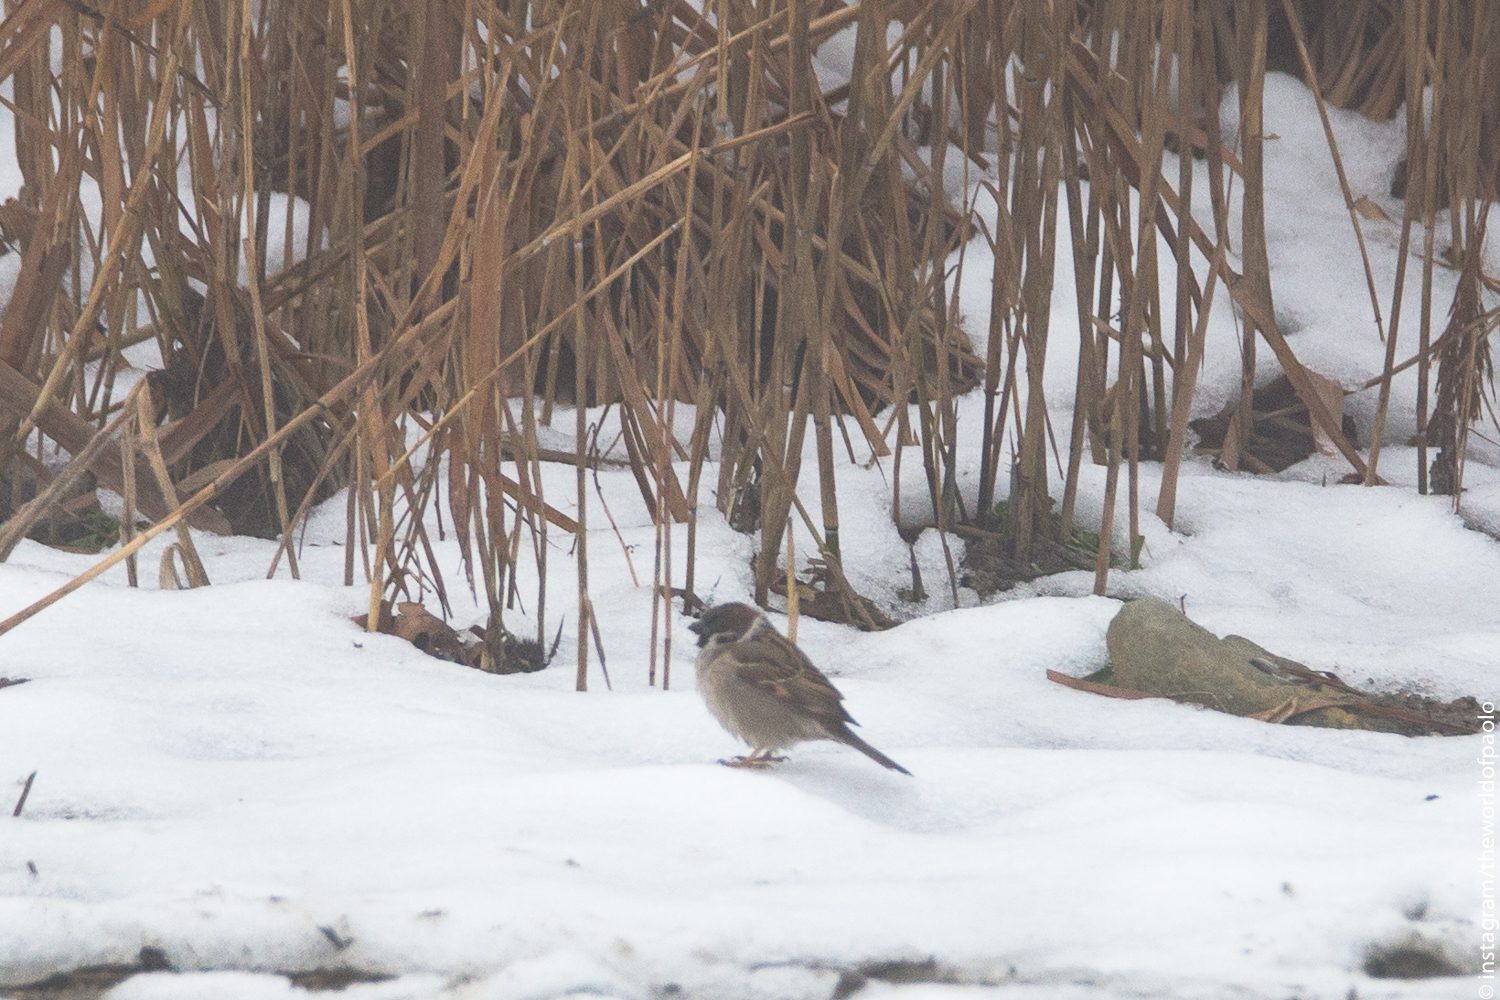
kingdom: Animalia
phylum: Chordata
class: Aves
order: Passeriformes
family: Emberizidae
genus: Emberiza
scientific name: Emberiza schoeniclus
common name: Reed bunting
